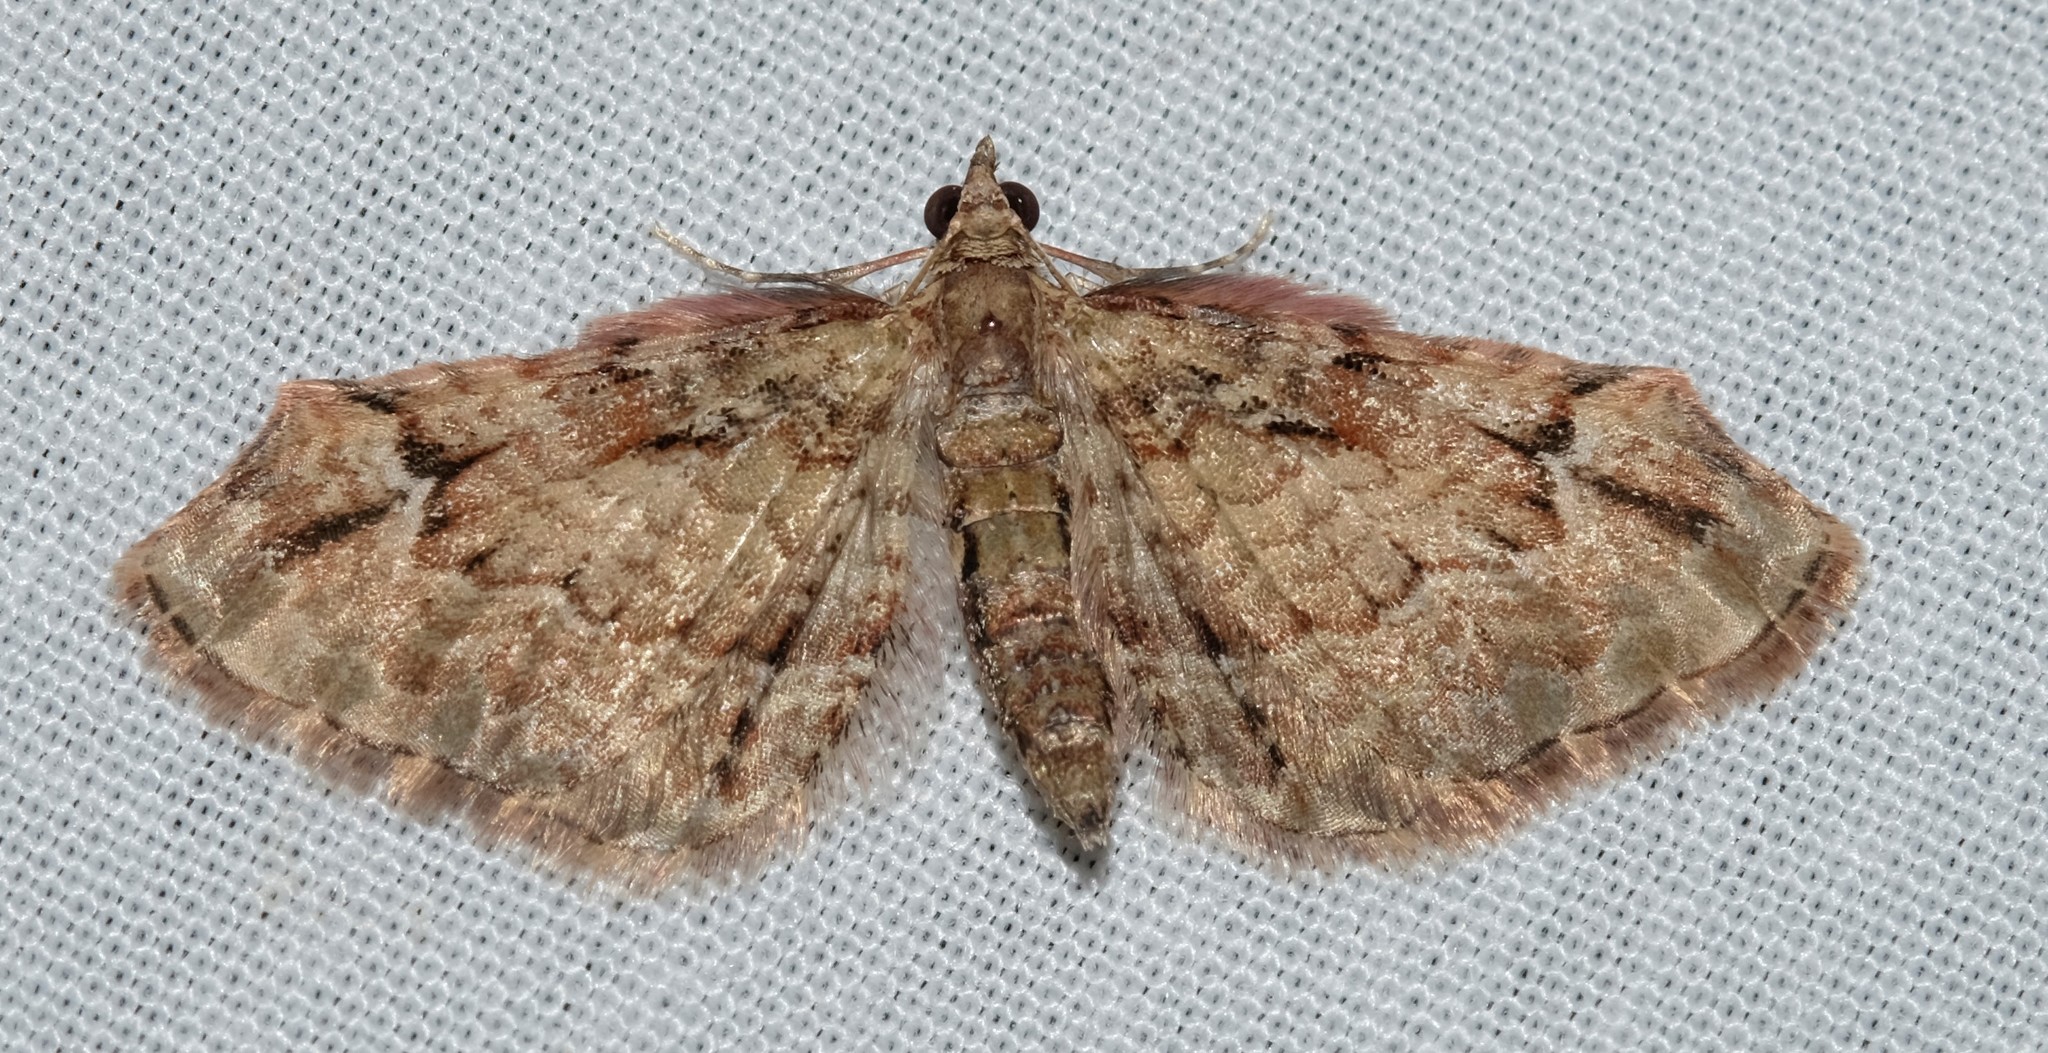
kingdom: Animalia
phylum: Arthropoda
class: Insecta
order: Lepidoptera
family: Geometridae
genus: Chloroclystis
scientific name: Chloroclystis approximata
